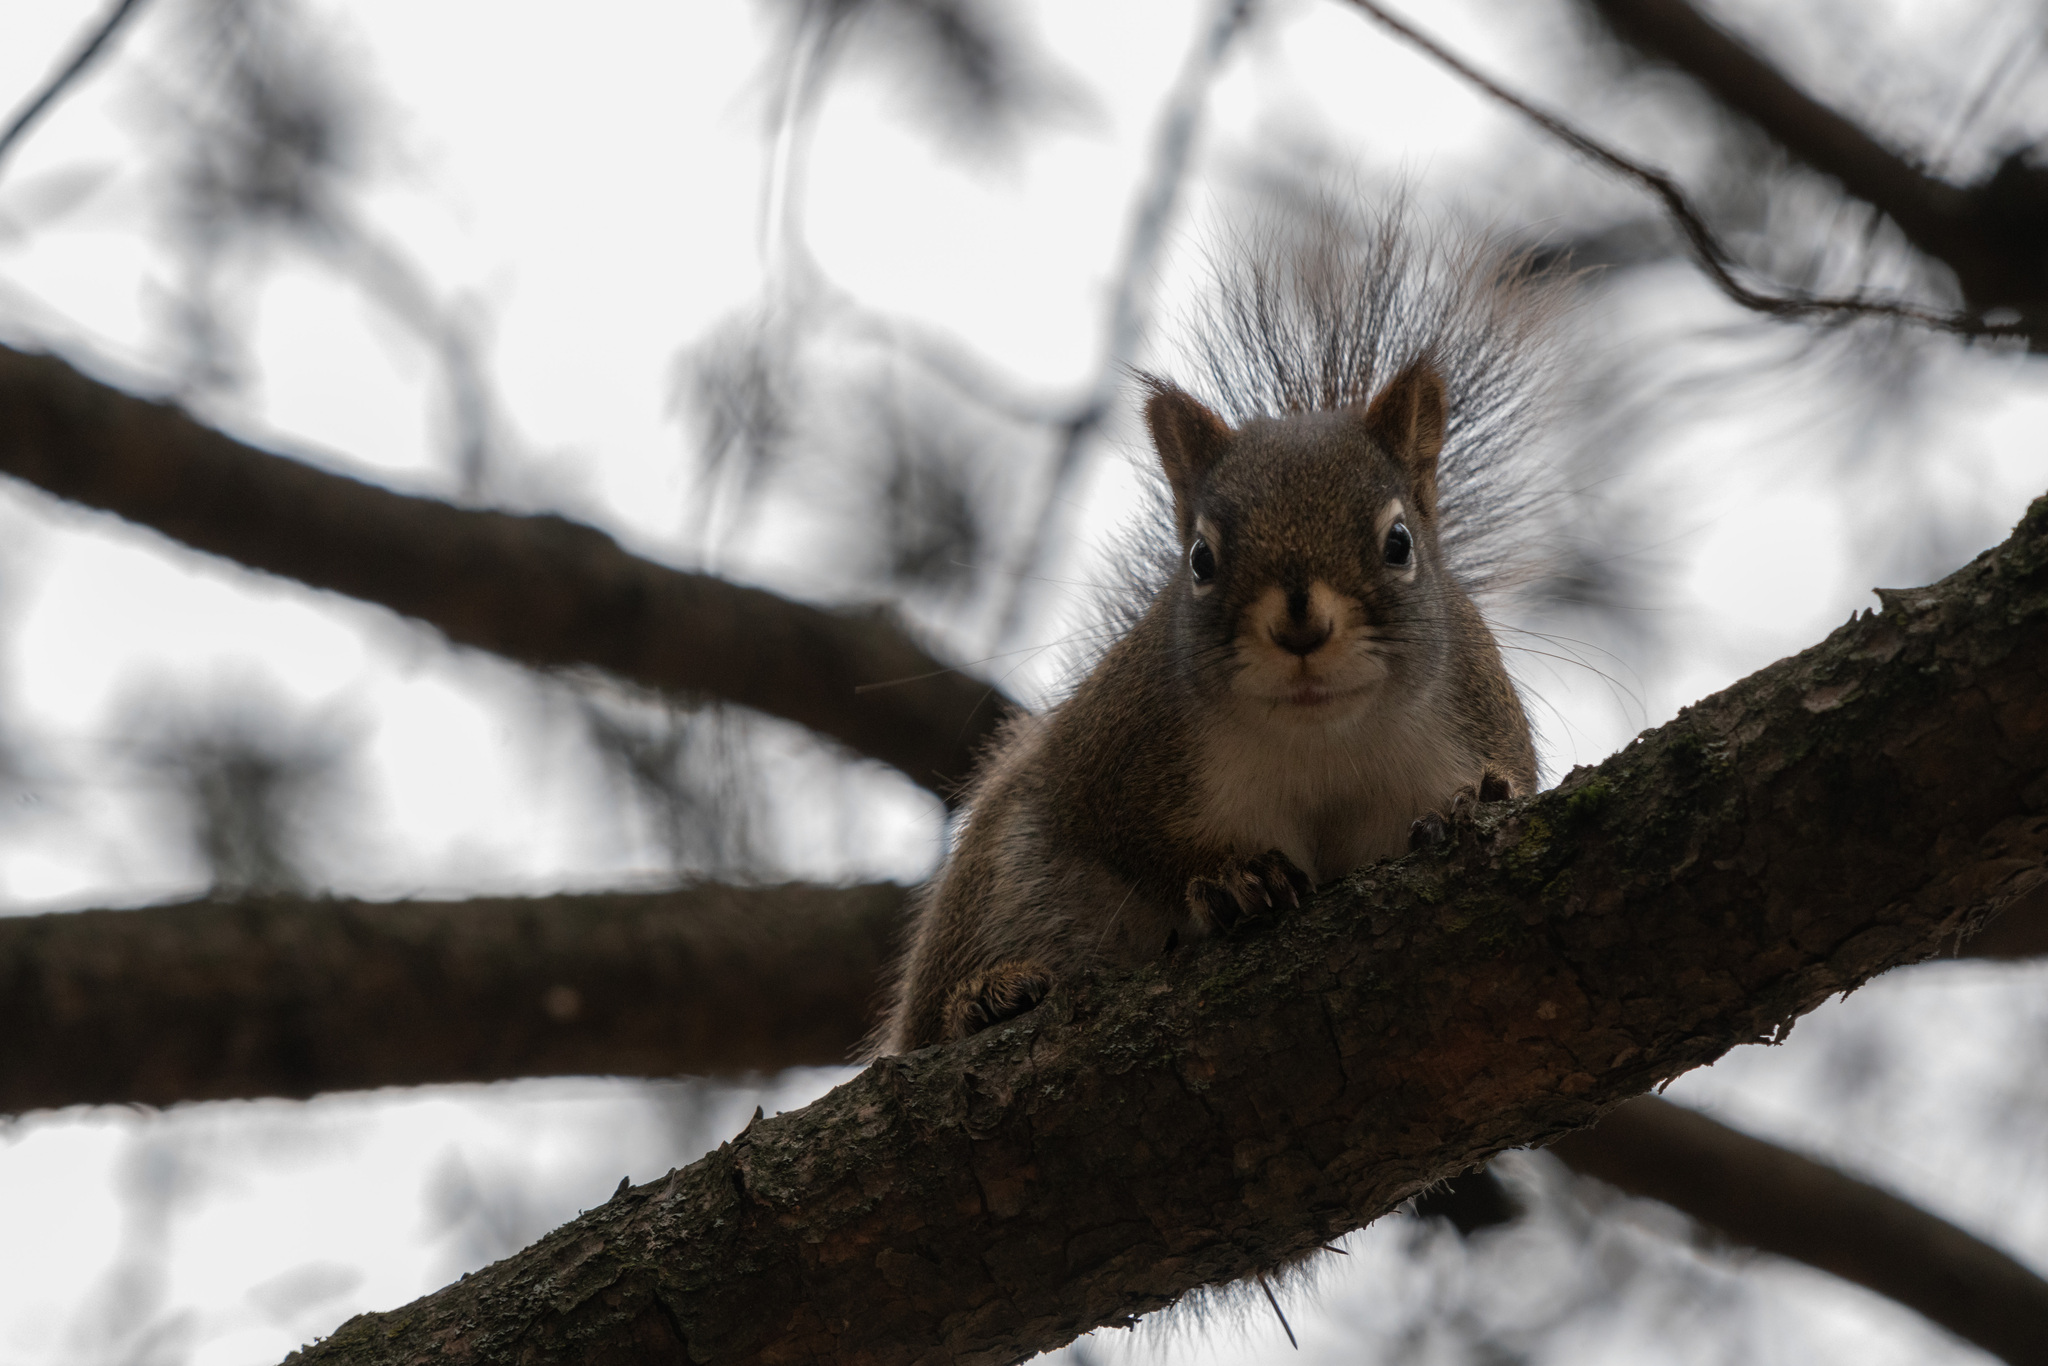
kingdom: Animalia
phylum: Chordata
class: Mammalia
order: Rodentia
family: Sciuridae
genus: Tamiasciurus
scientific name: Tamiasciurus hudsonicus
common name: Red squirrel
